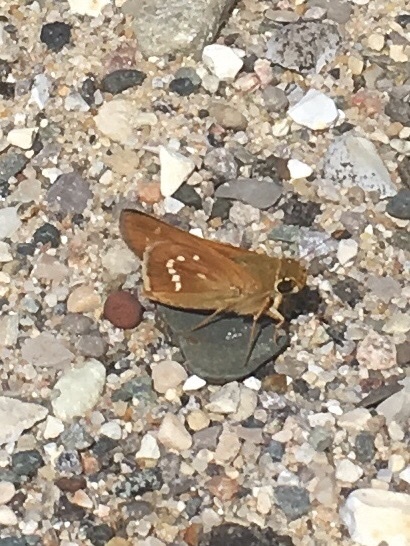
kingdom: Animalia
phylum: Arthropoda
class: Insecta
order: Lepidoptera
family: Hesperiidae
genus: Hesperia
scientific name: Hesperia leonardus
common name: Leonard's skipper
